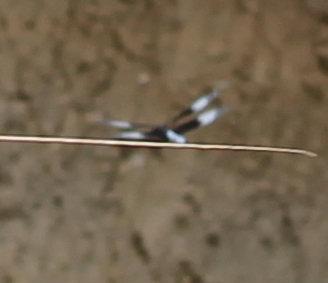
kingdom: Animalia
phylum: Arthropoda
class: Insecta
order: Odonata
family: Libellulidae
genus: Libellula
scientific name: Libellula luctuosa
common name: Widow skimmer
